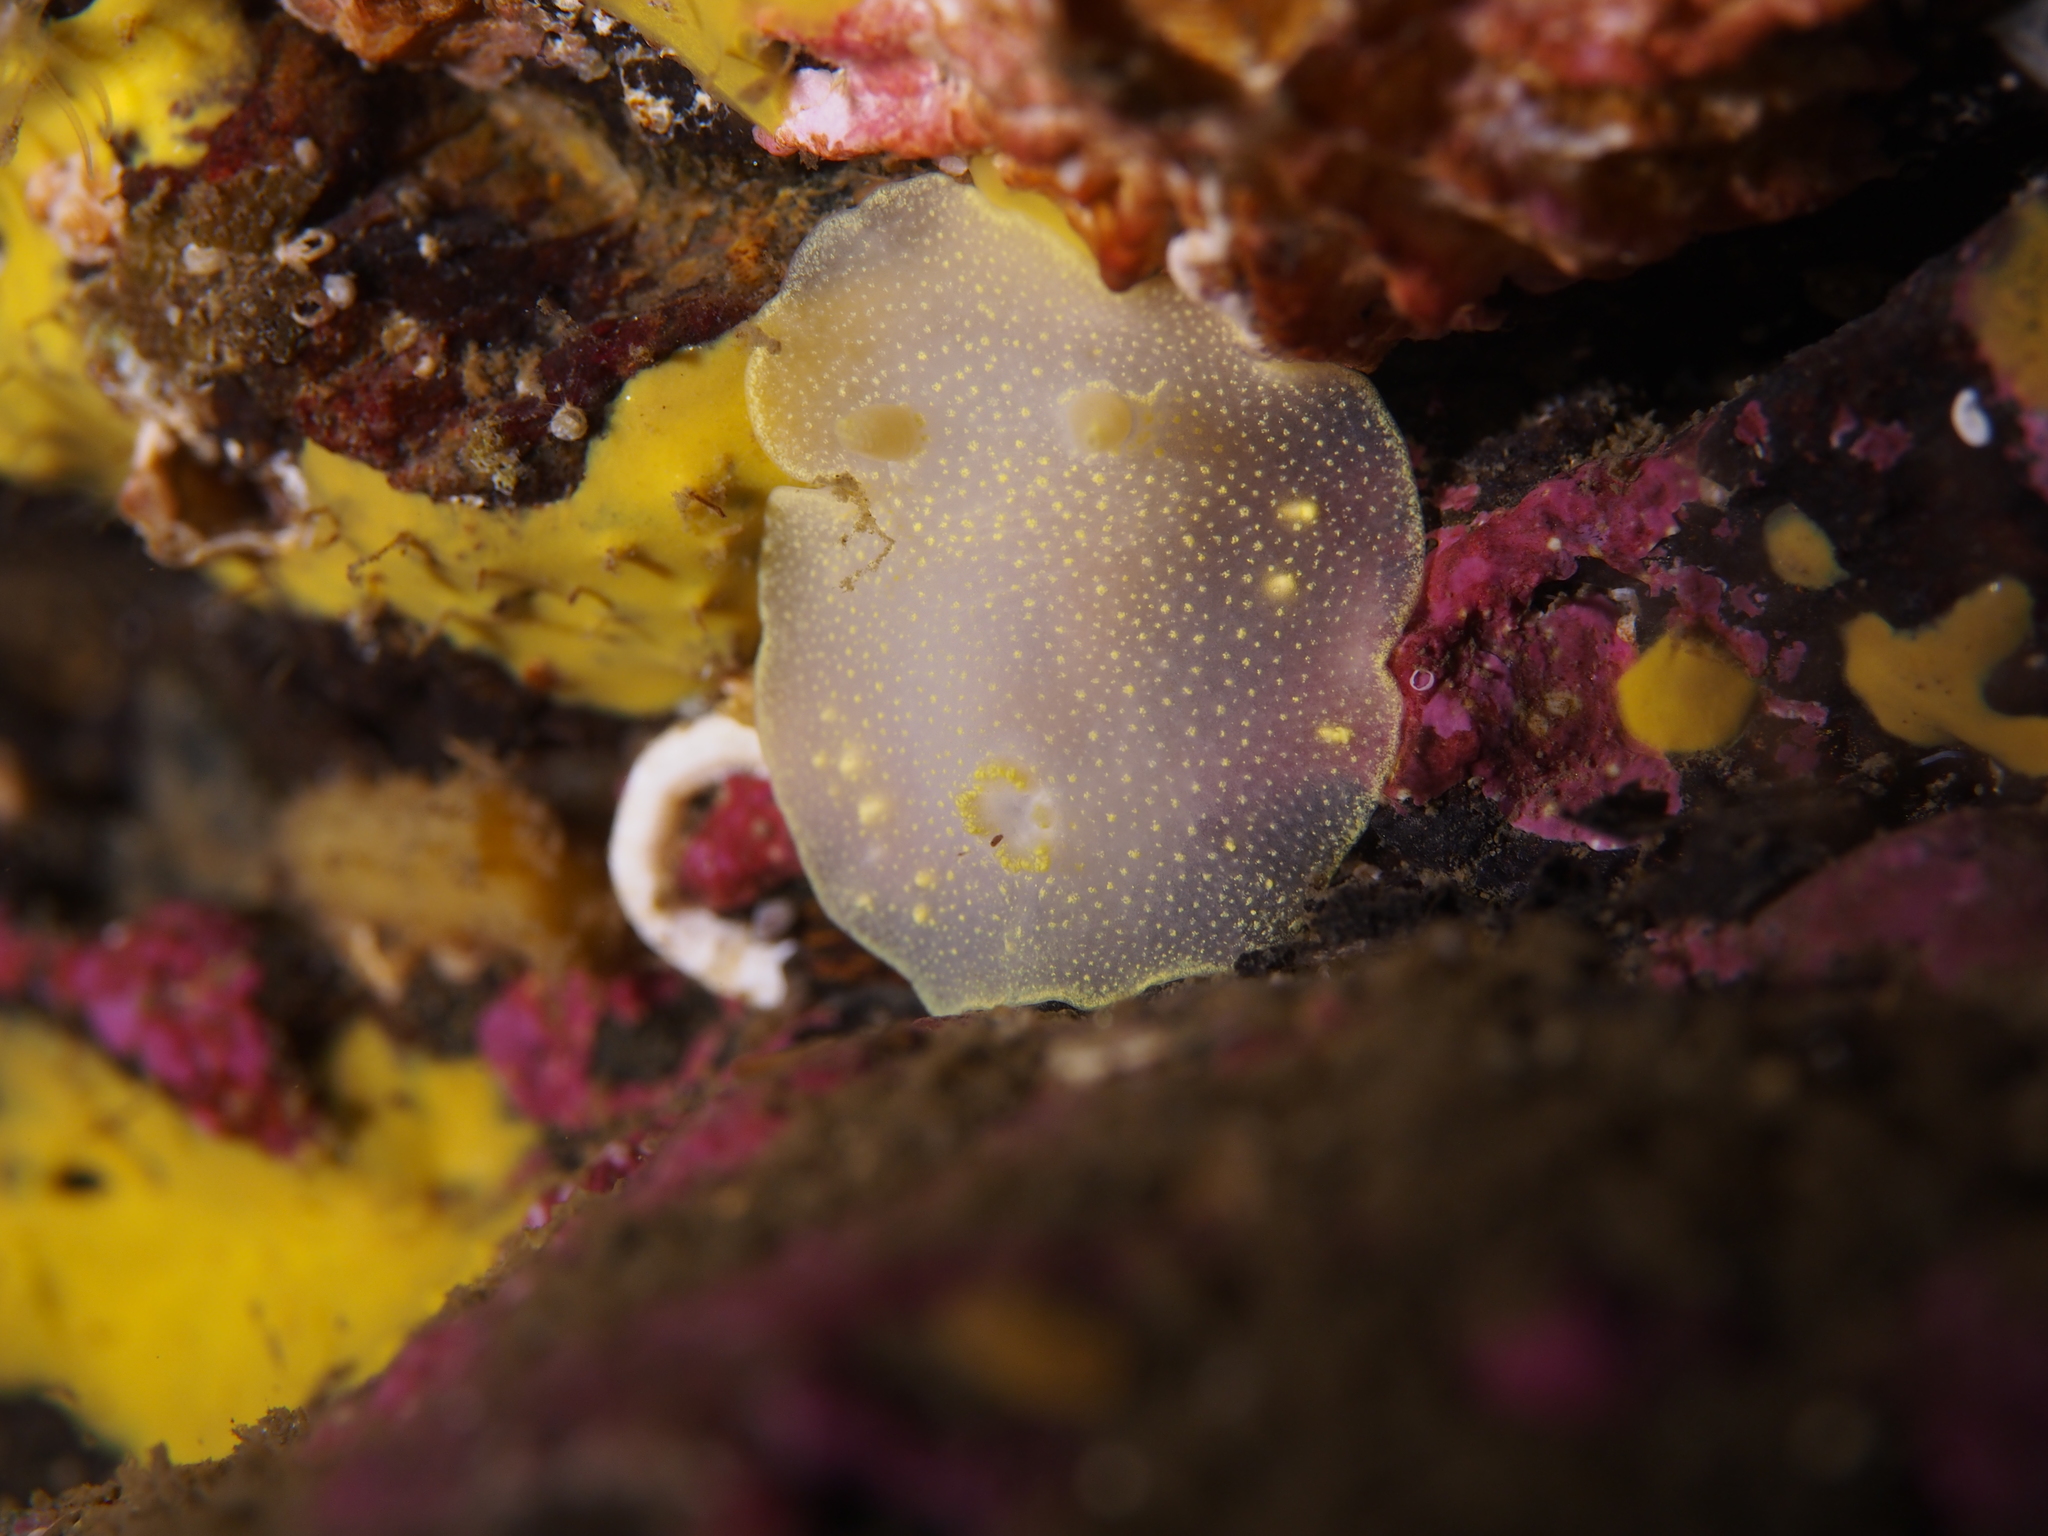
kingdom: Animalia
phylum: Mollusca
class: Gastropoda
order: Nudibranchia
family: Cadlinidae
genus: Cadlina
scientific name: Cadlina laevis
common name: White atlantic cadlina
